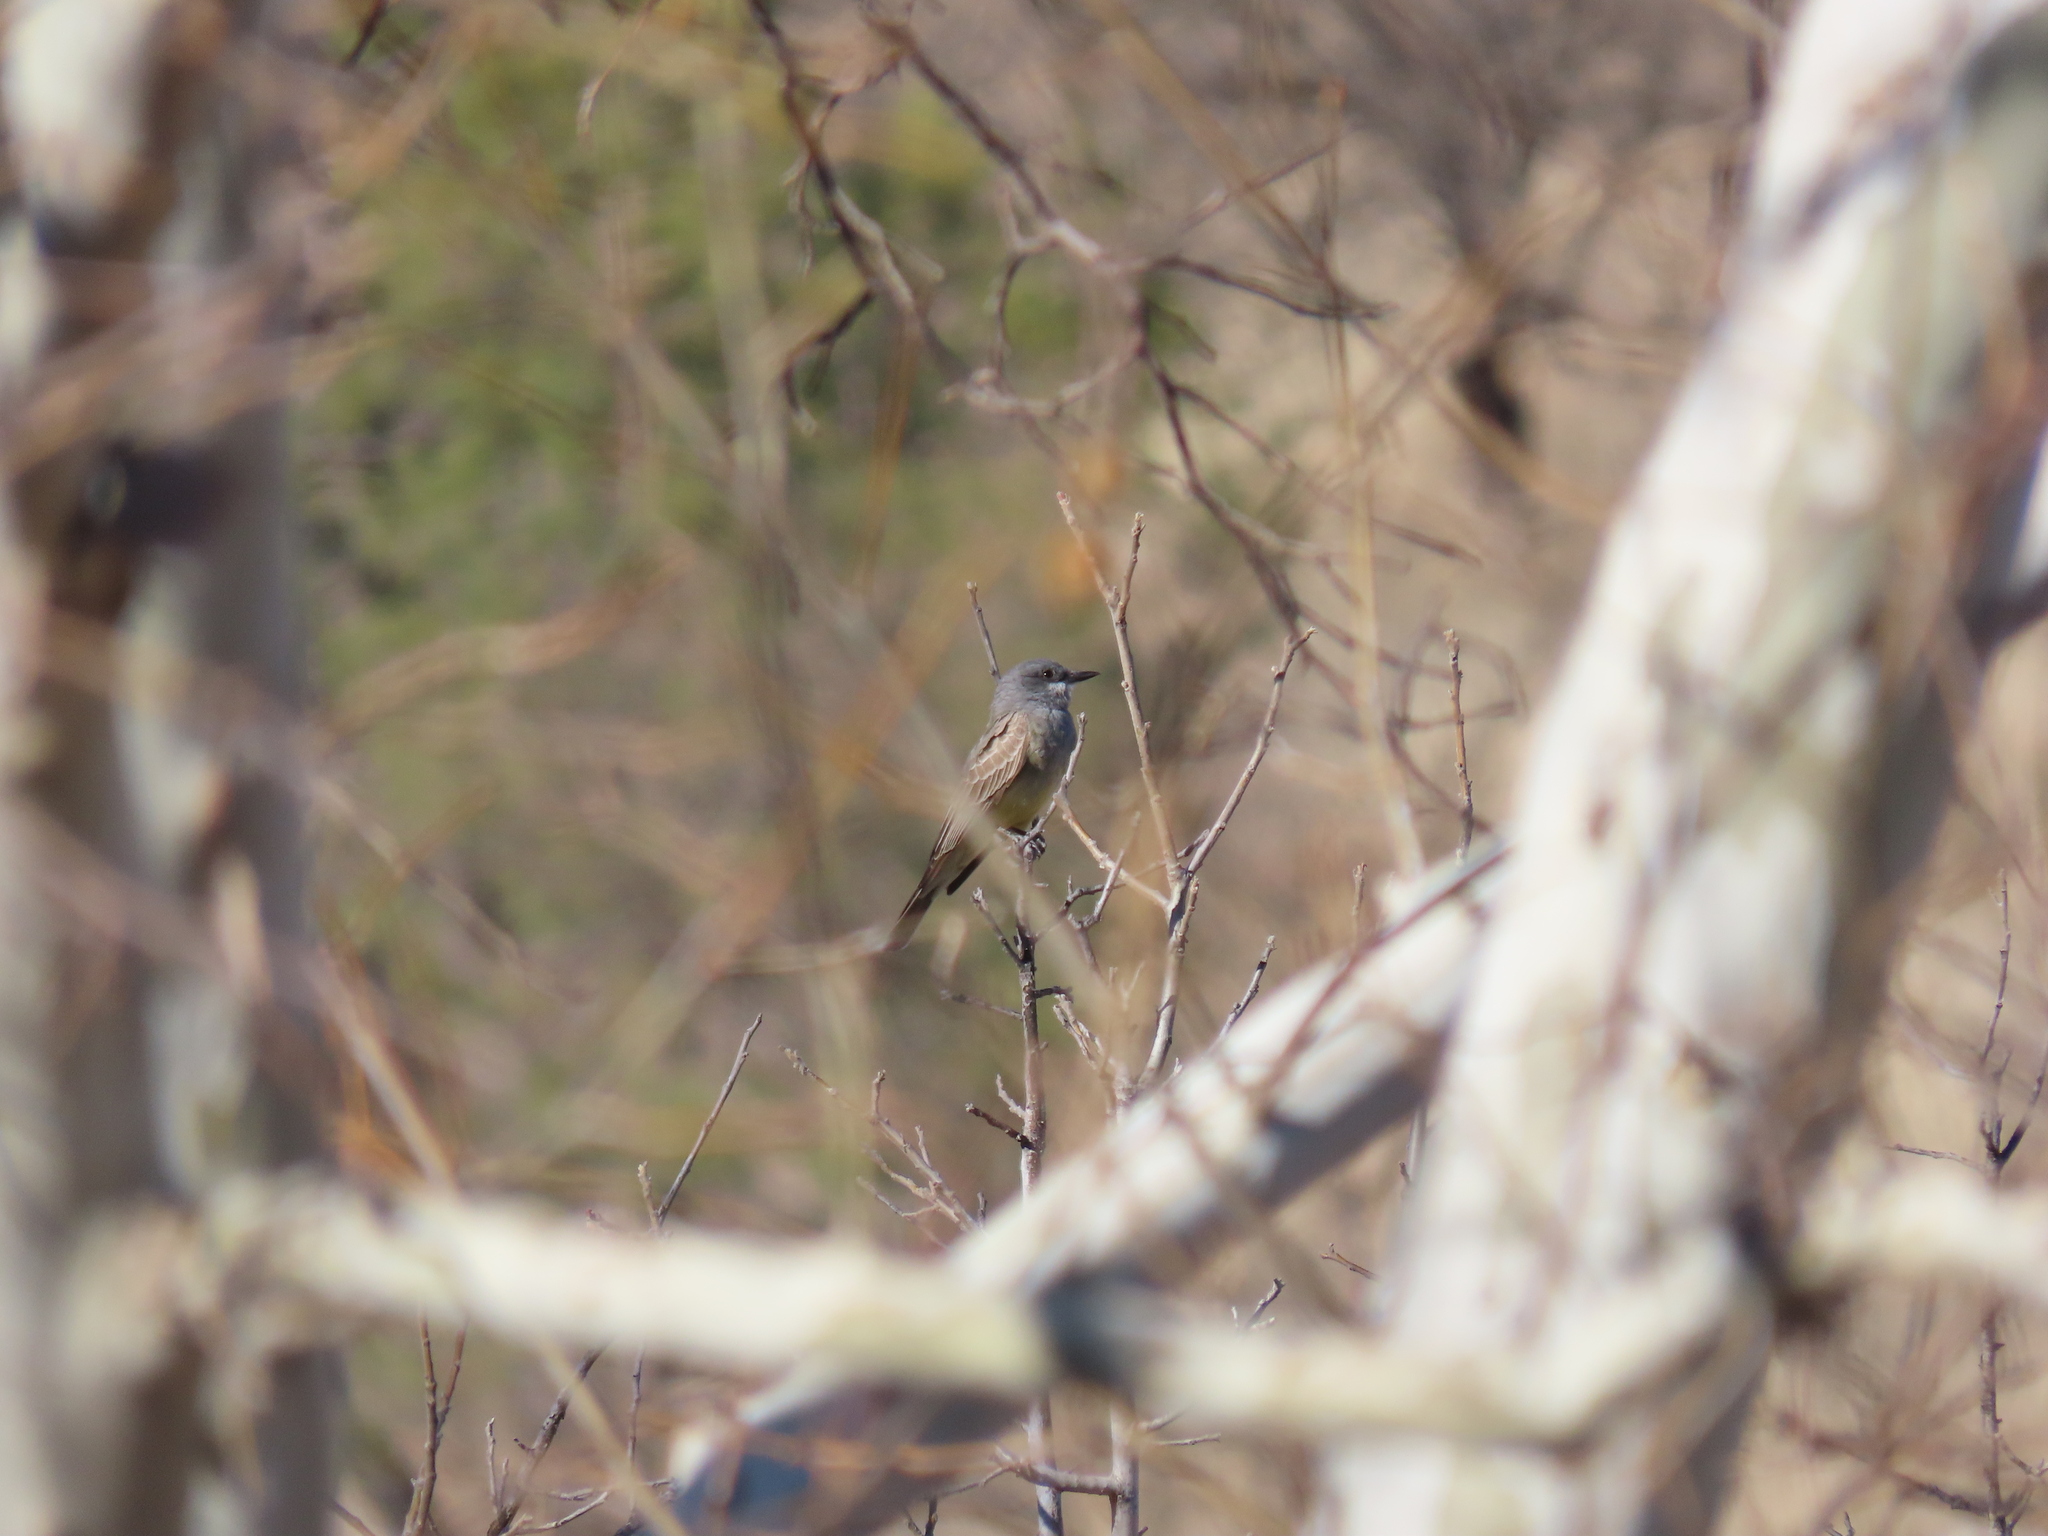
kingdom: Animalia
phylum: Chordata
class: Aves
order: Passeriformes
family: Tyrannidae
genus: Tyrannus
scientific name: Tyrannus vociferans
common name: Cassin's kingbird
